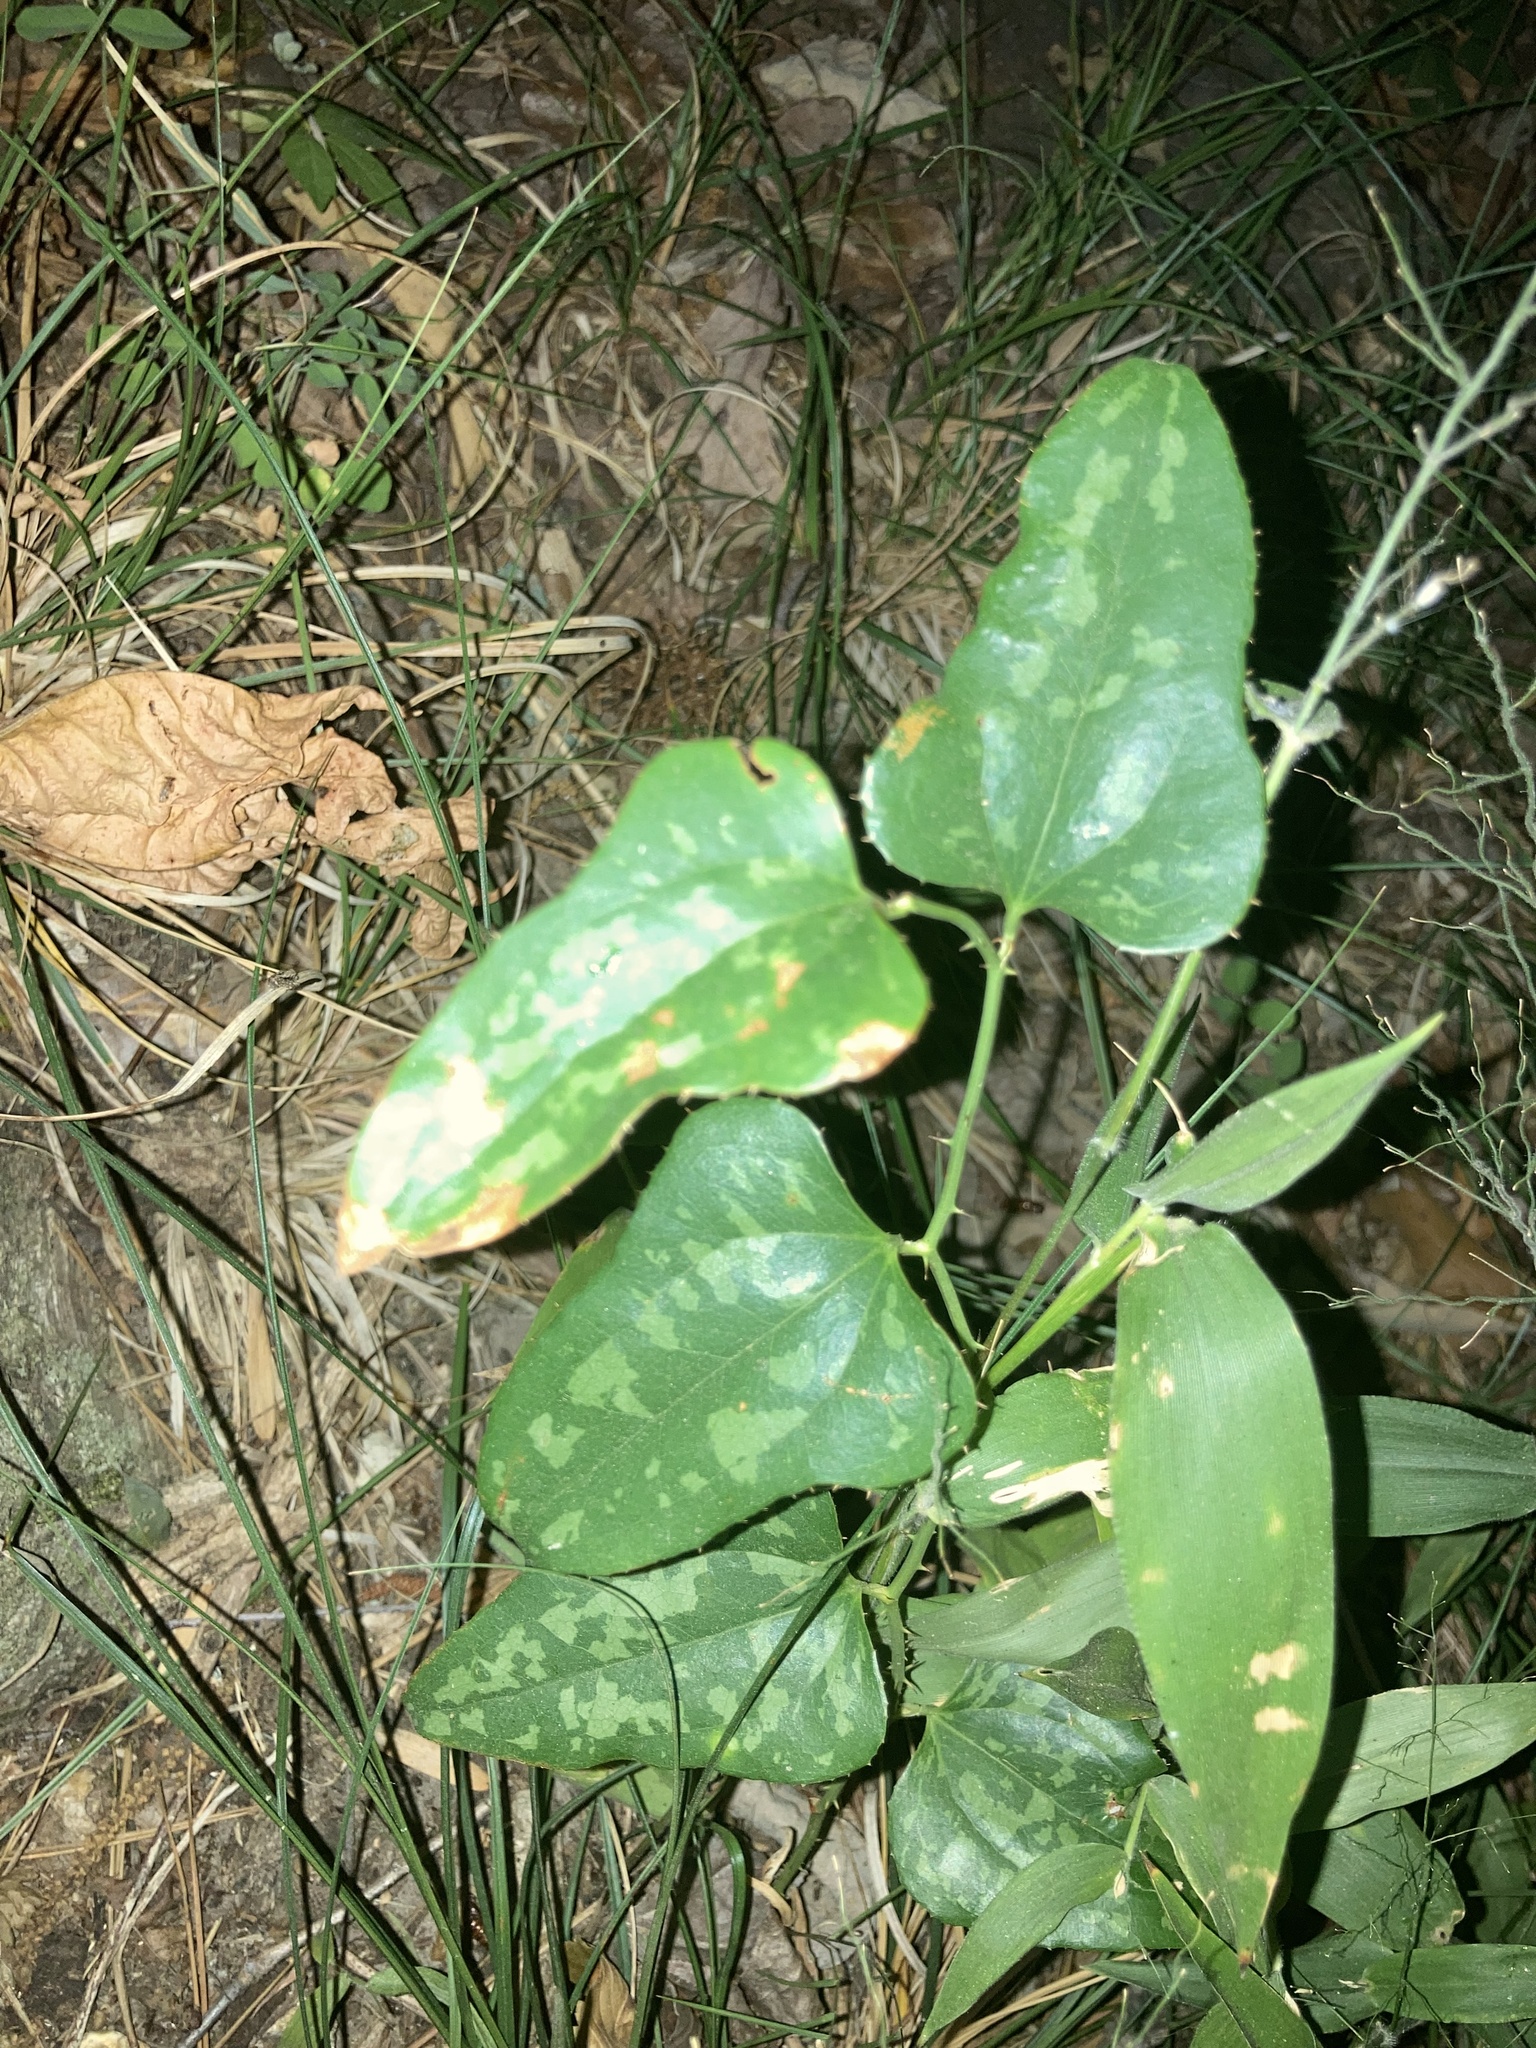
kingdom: Plantae
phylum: Tracheophyta
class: Liliopsida
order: Liliales
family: Smilacaceae
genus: Smilax
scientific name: Smilax bona-nox
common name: Catbrier
